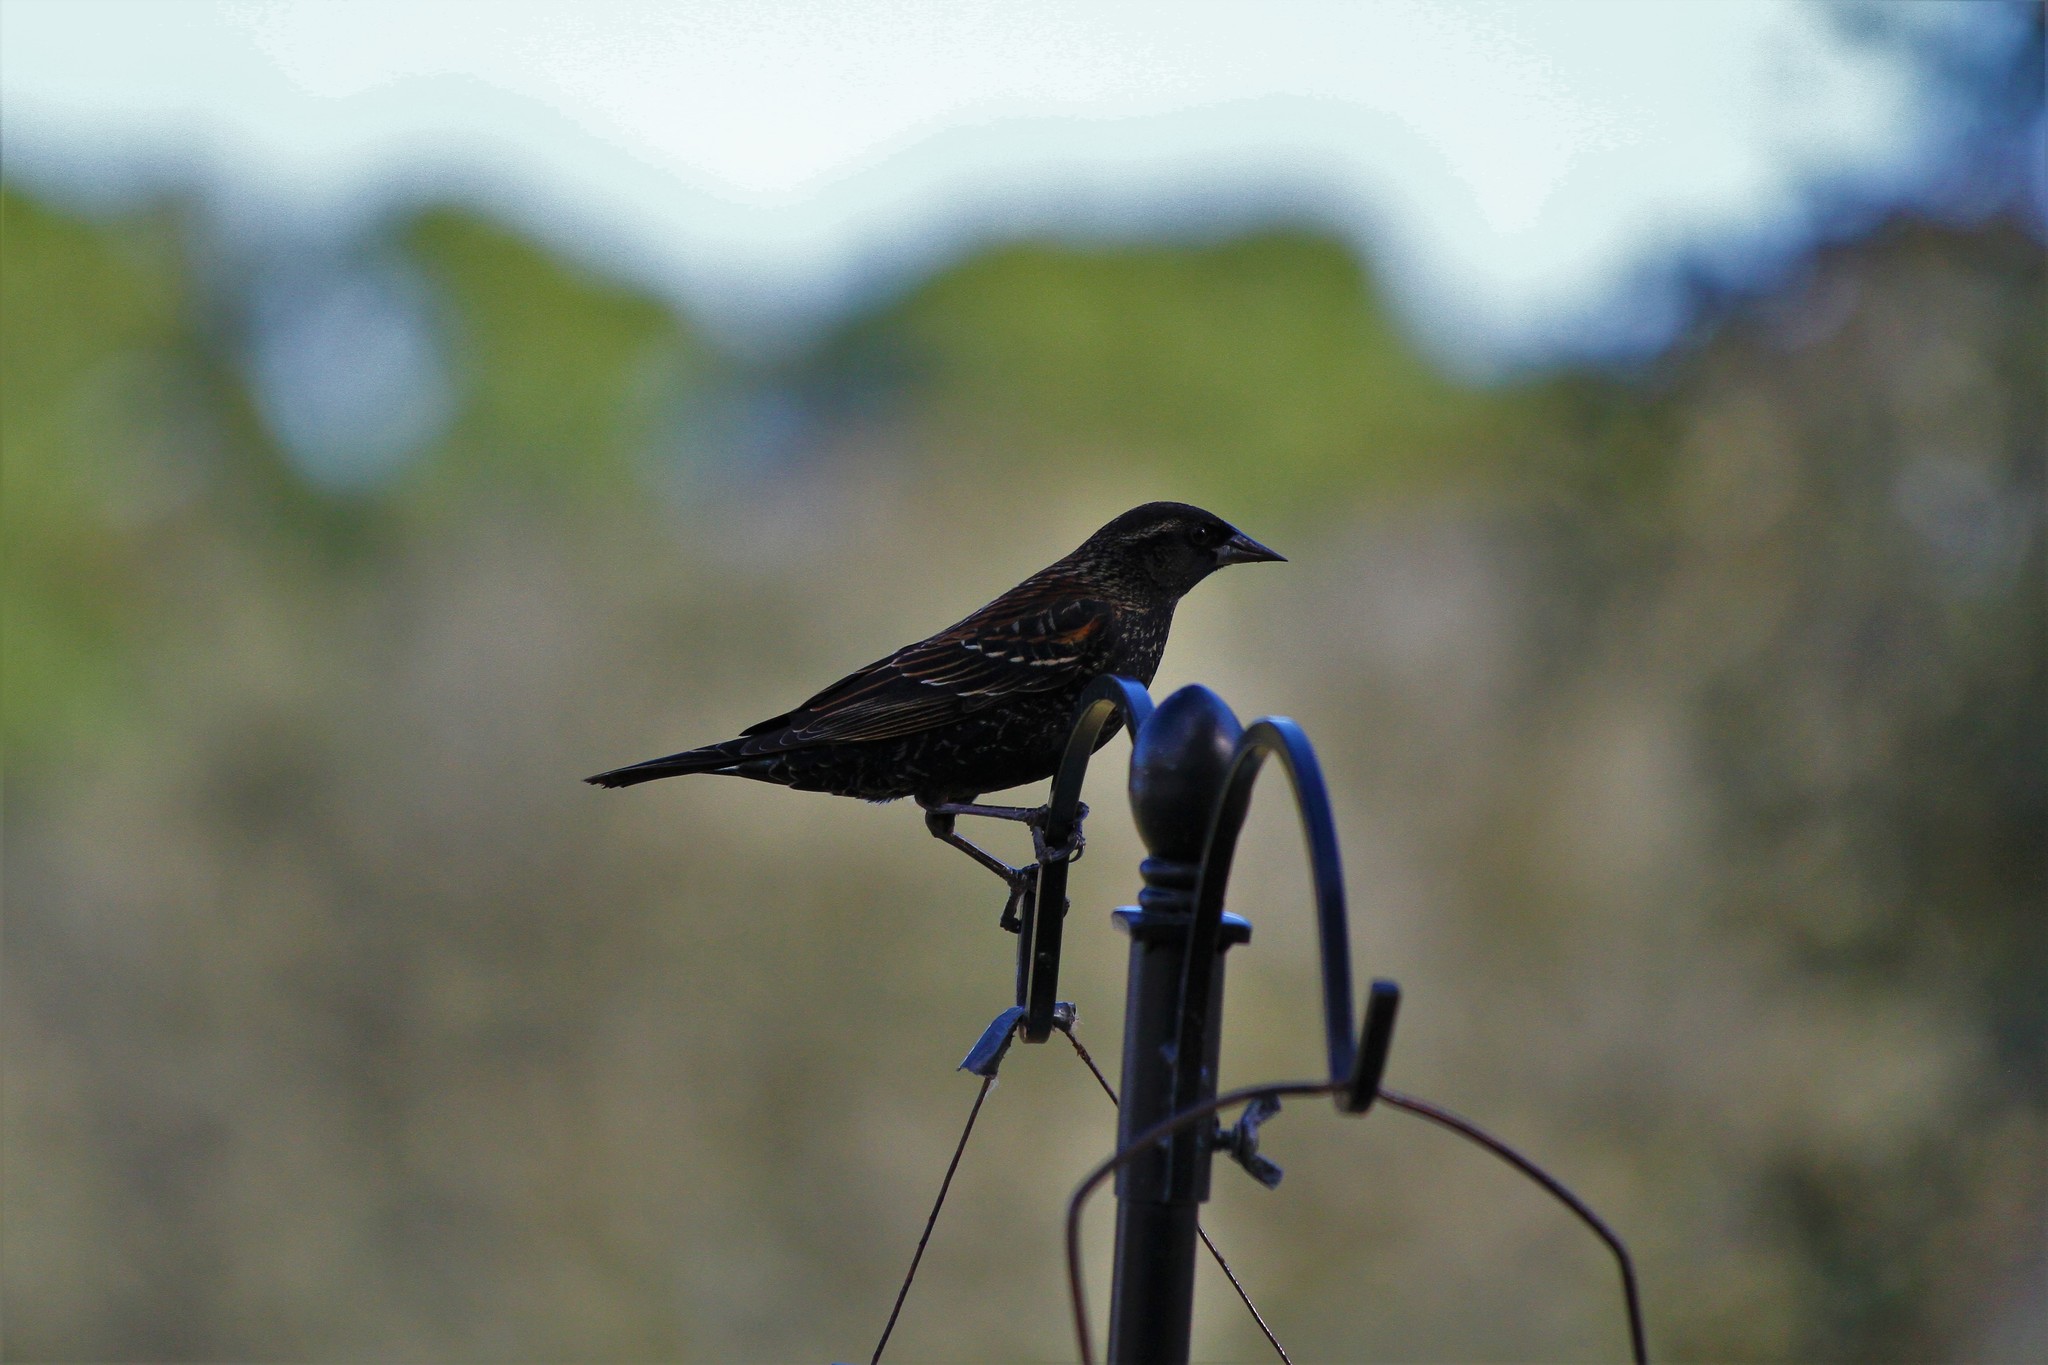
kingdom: Animalia
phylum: Chordata
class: Aves
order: Passeriformes
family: Icteridae
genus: Agelaius
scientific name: Agelaius phoeniceus
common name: Red-winged blackbird
